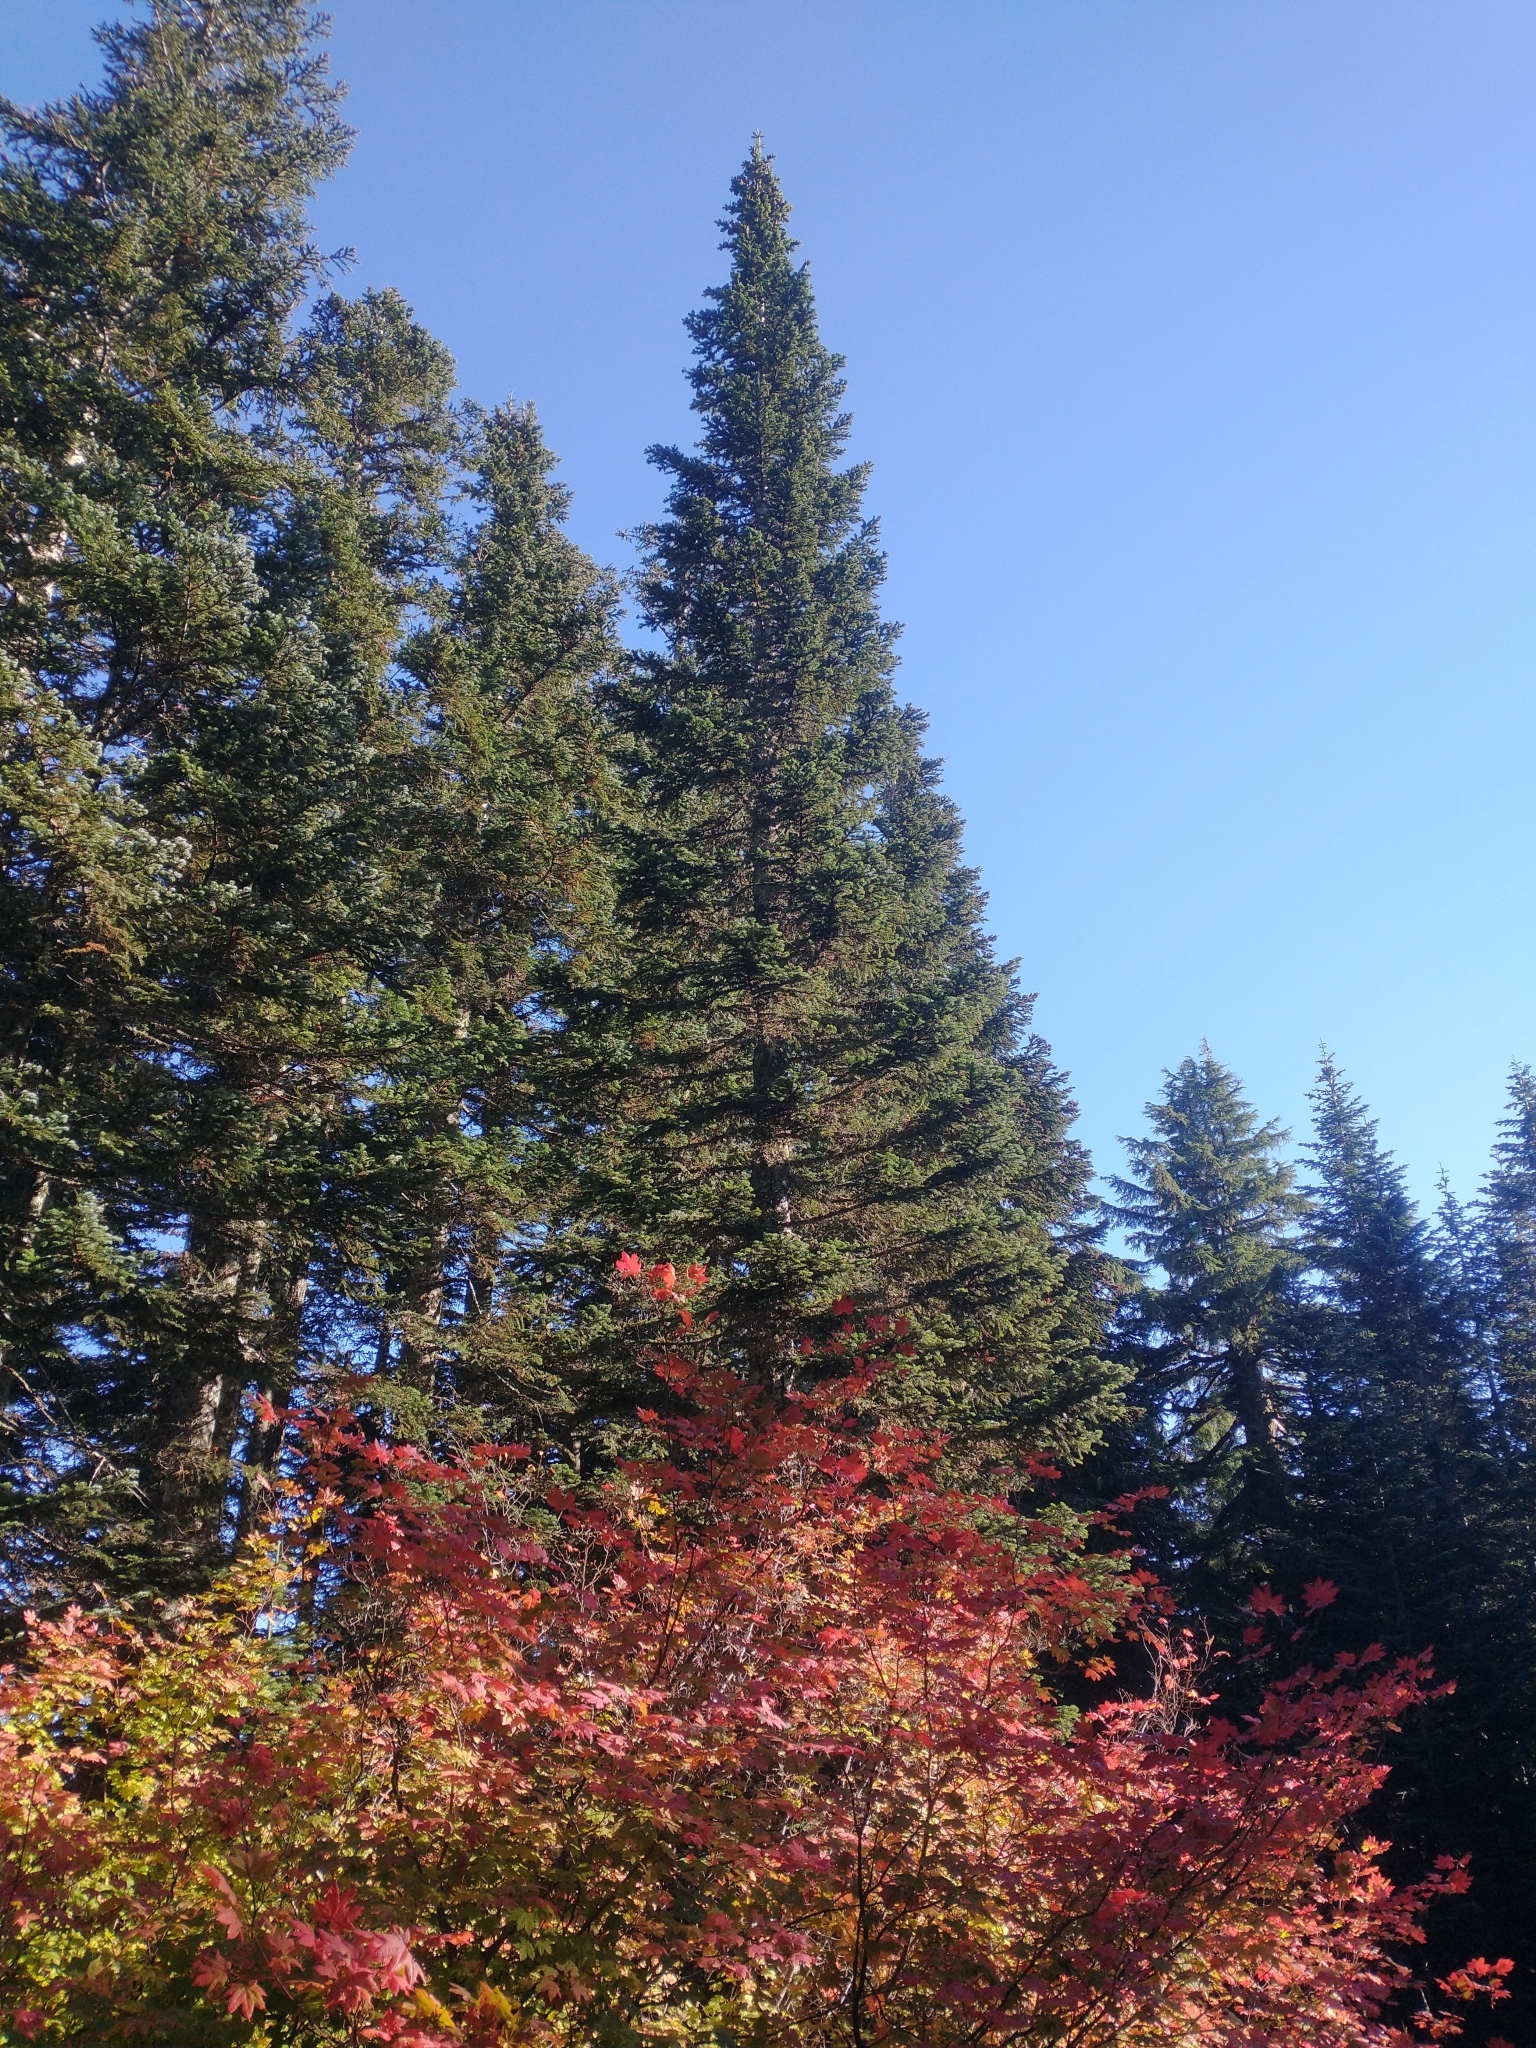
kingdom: Plantae
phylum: Tracheophyta
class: Magnoliopsida
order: Sapindales
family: Sapindaceae
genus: Acer
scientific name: Acer circinatum
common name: Vine maple
